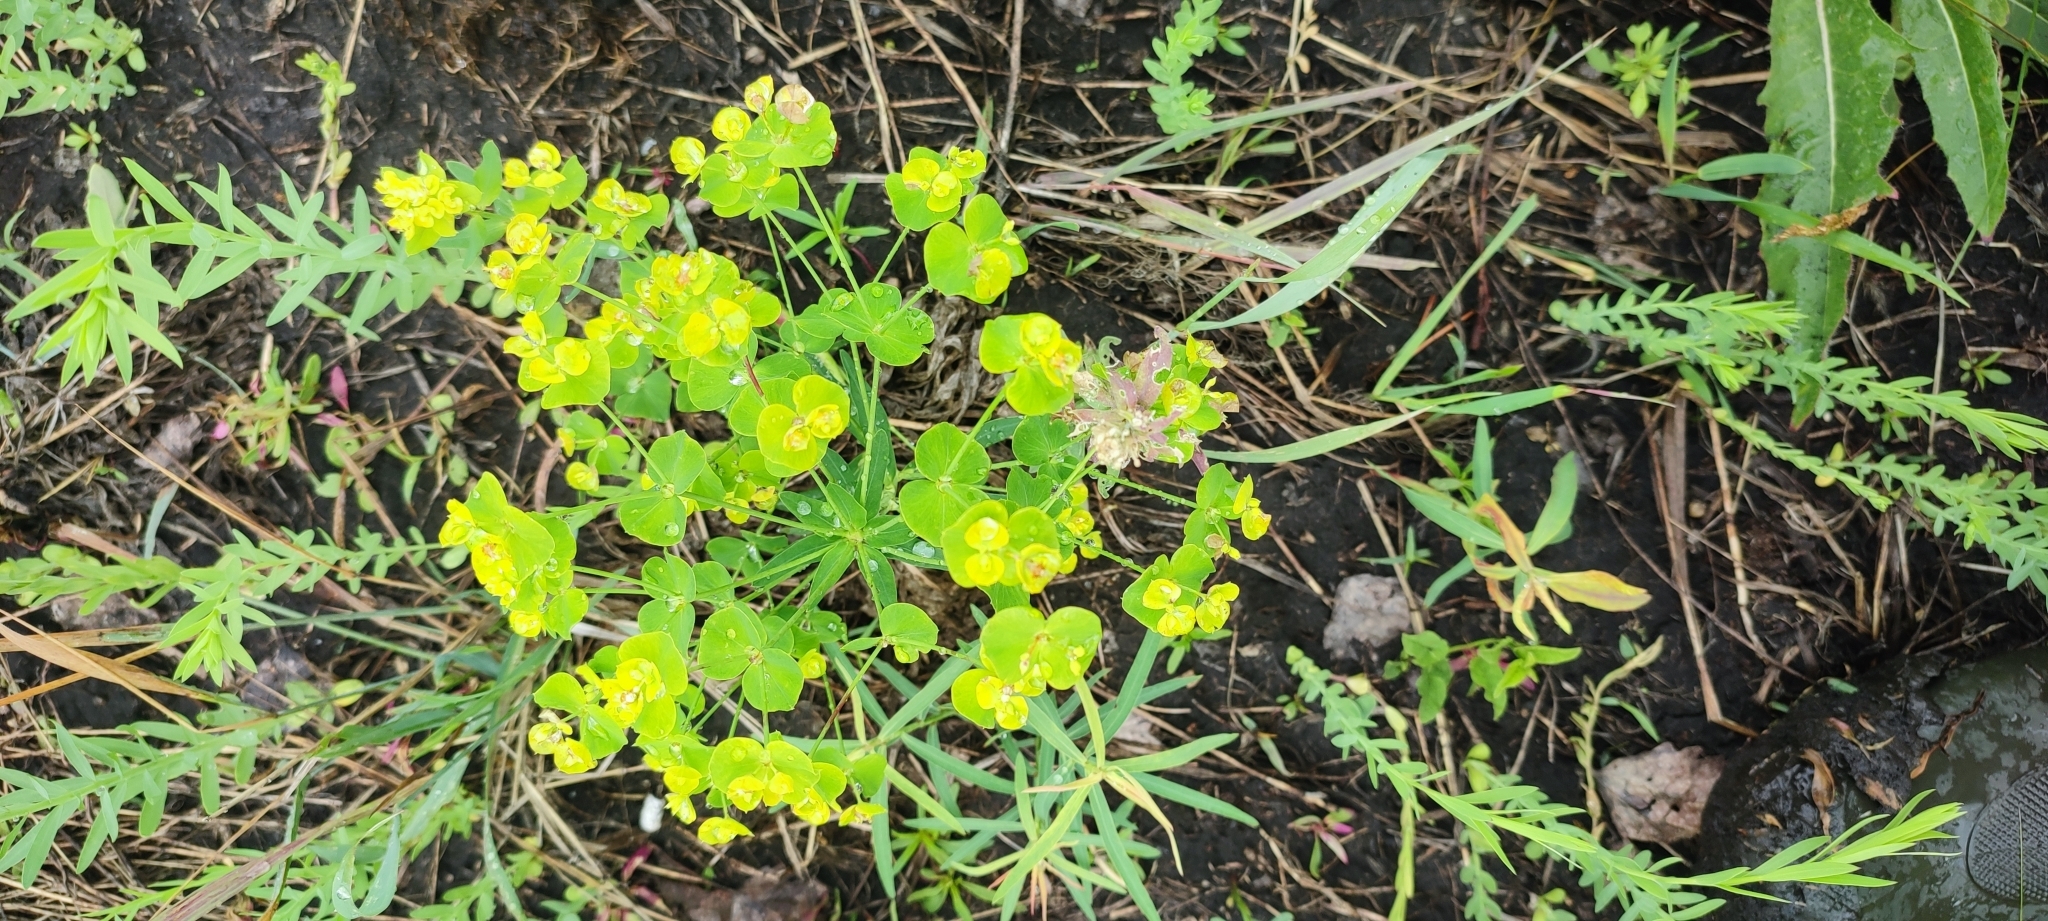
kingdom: Plantae
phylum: Tracheophyta
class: Magnoliopsida
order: Malpighiales
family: Euphorbiaceae
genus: Euphorbia
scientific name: Euphorbia virgata
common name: Leafy spurge
